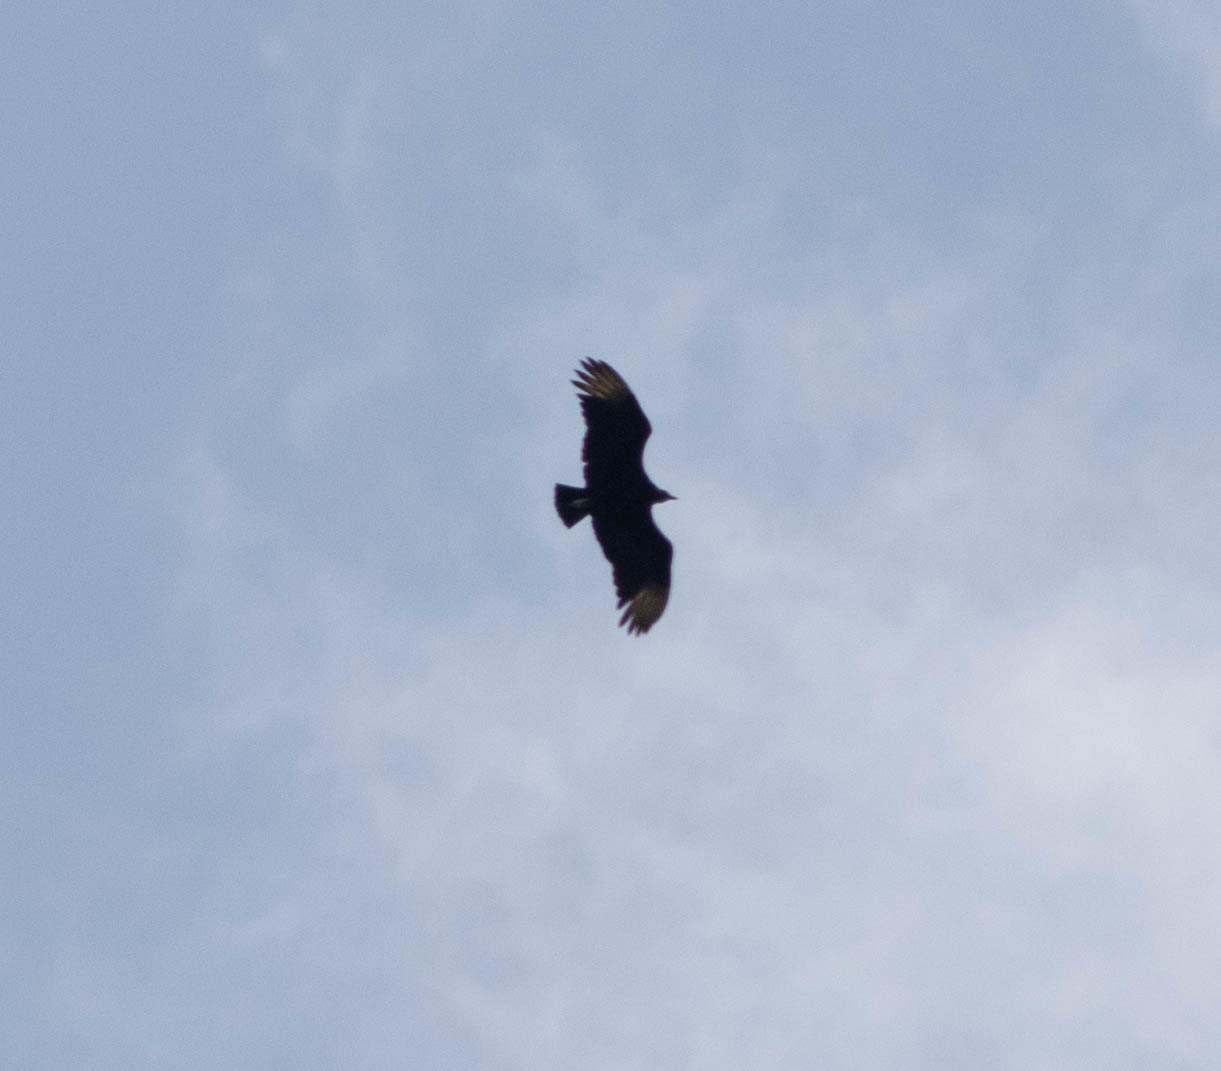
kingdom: Animalia
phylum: Chordata
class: Aves
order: Accipitriformes
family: Cathartidae
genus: Coragyps
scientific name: Coragyps atratus
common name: Black vulture
